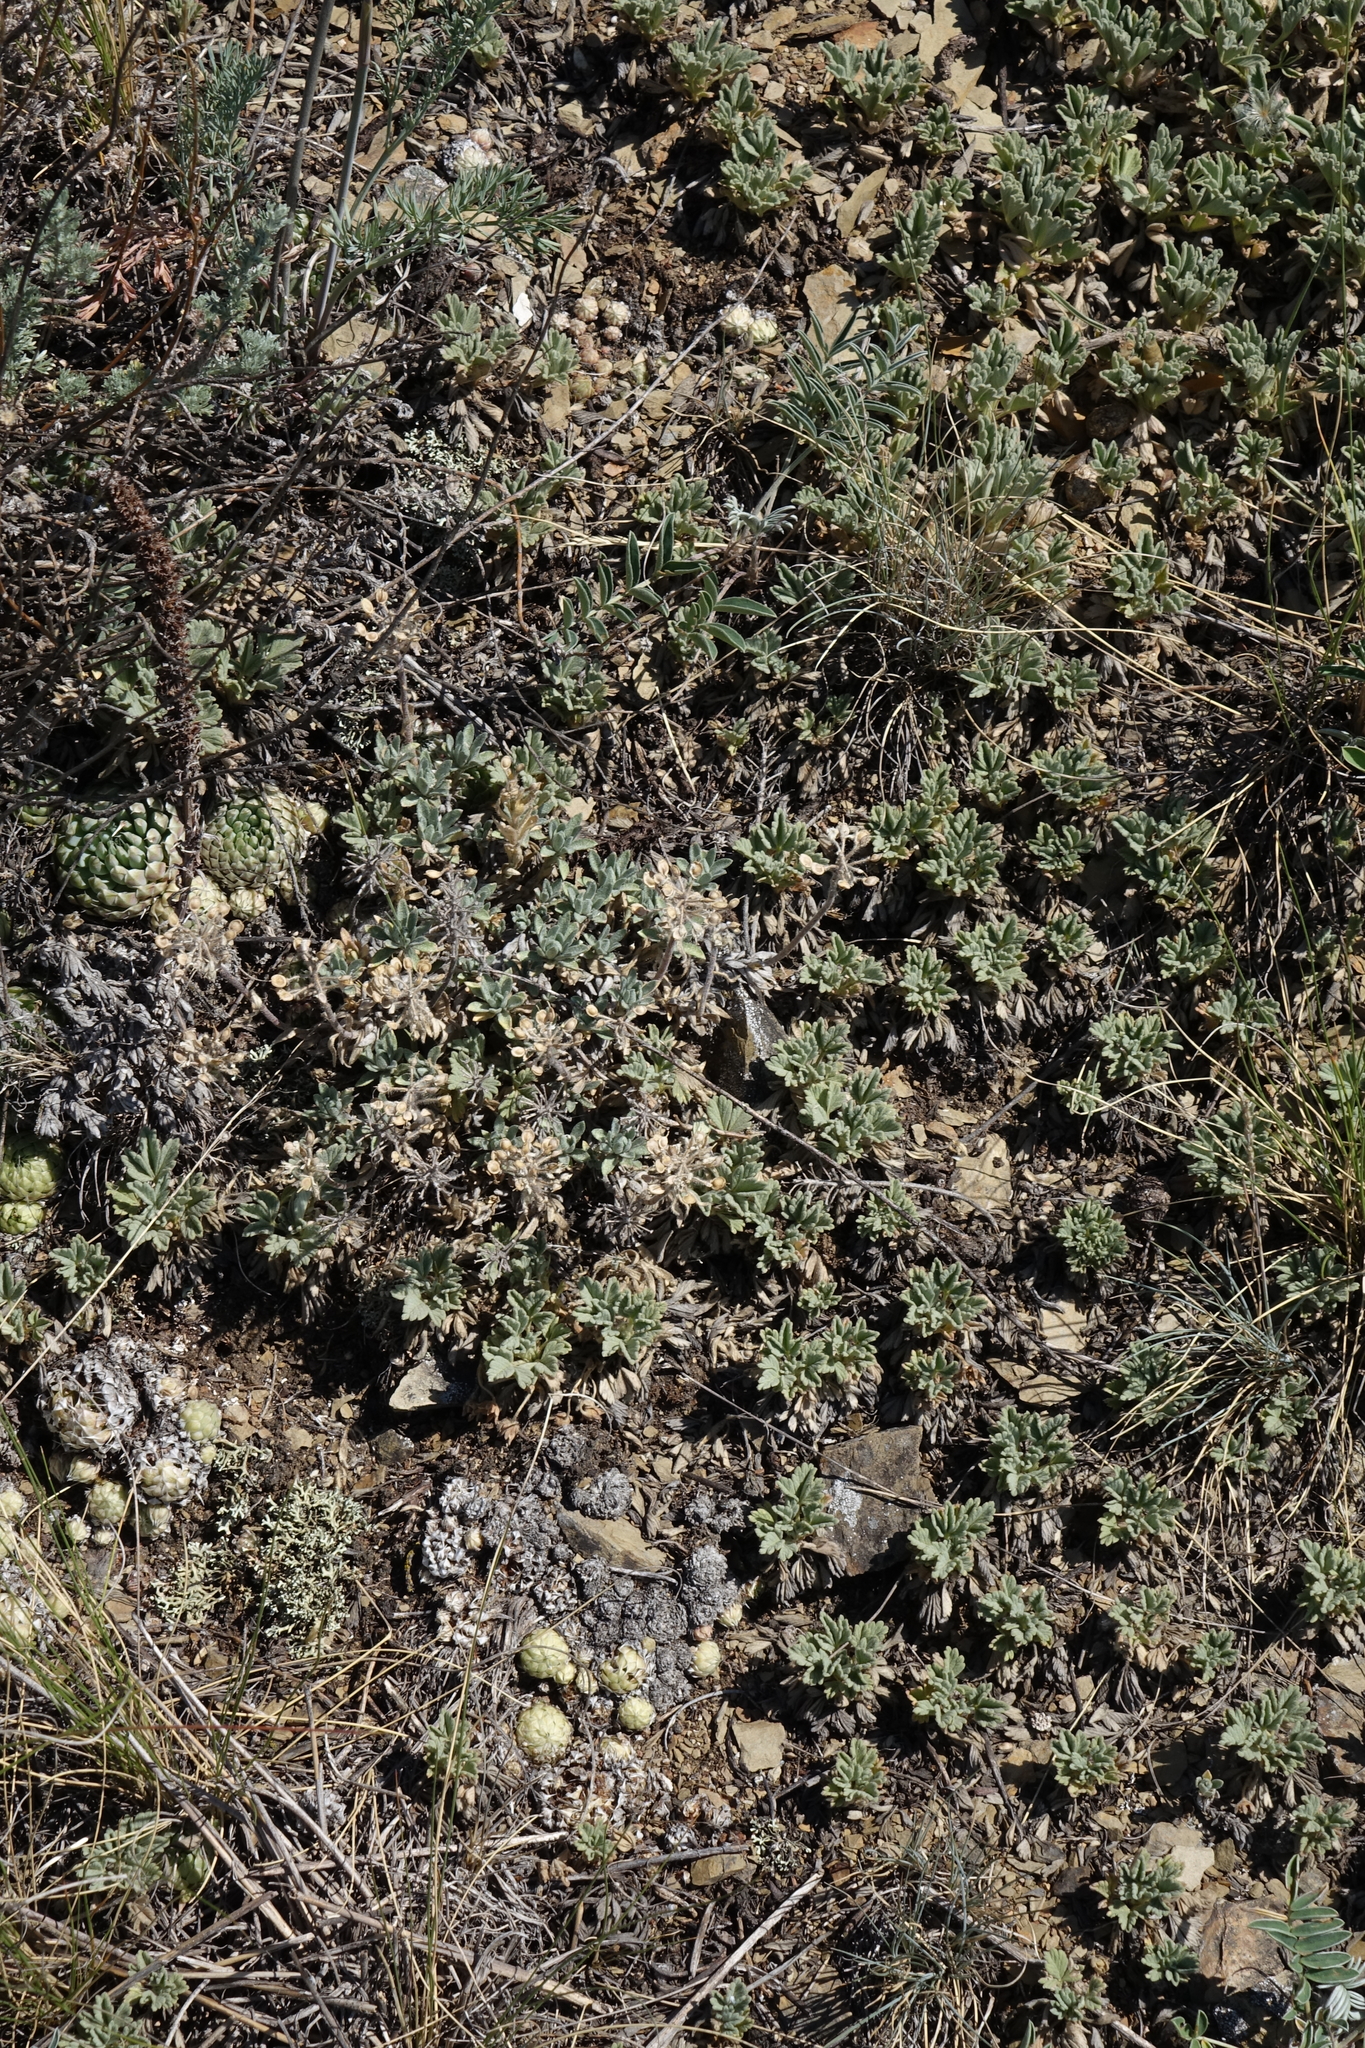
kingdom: Plantae
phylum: Tracheophyta
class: Magnoliopsida
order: Brassicales
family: Brassicaceae
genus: Alyssum
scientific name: Alyssum lenense
